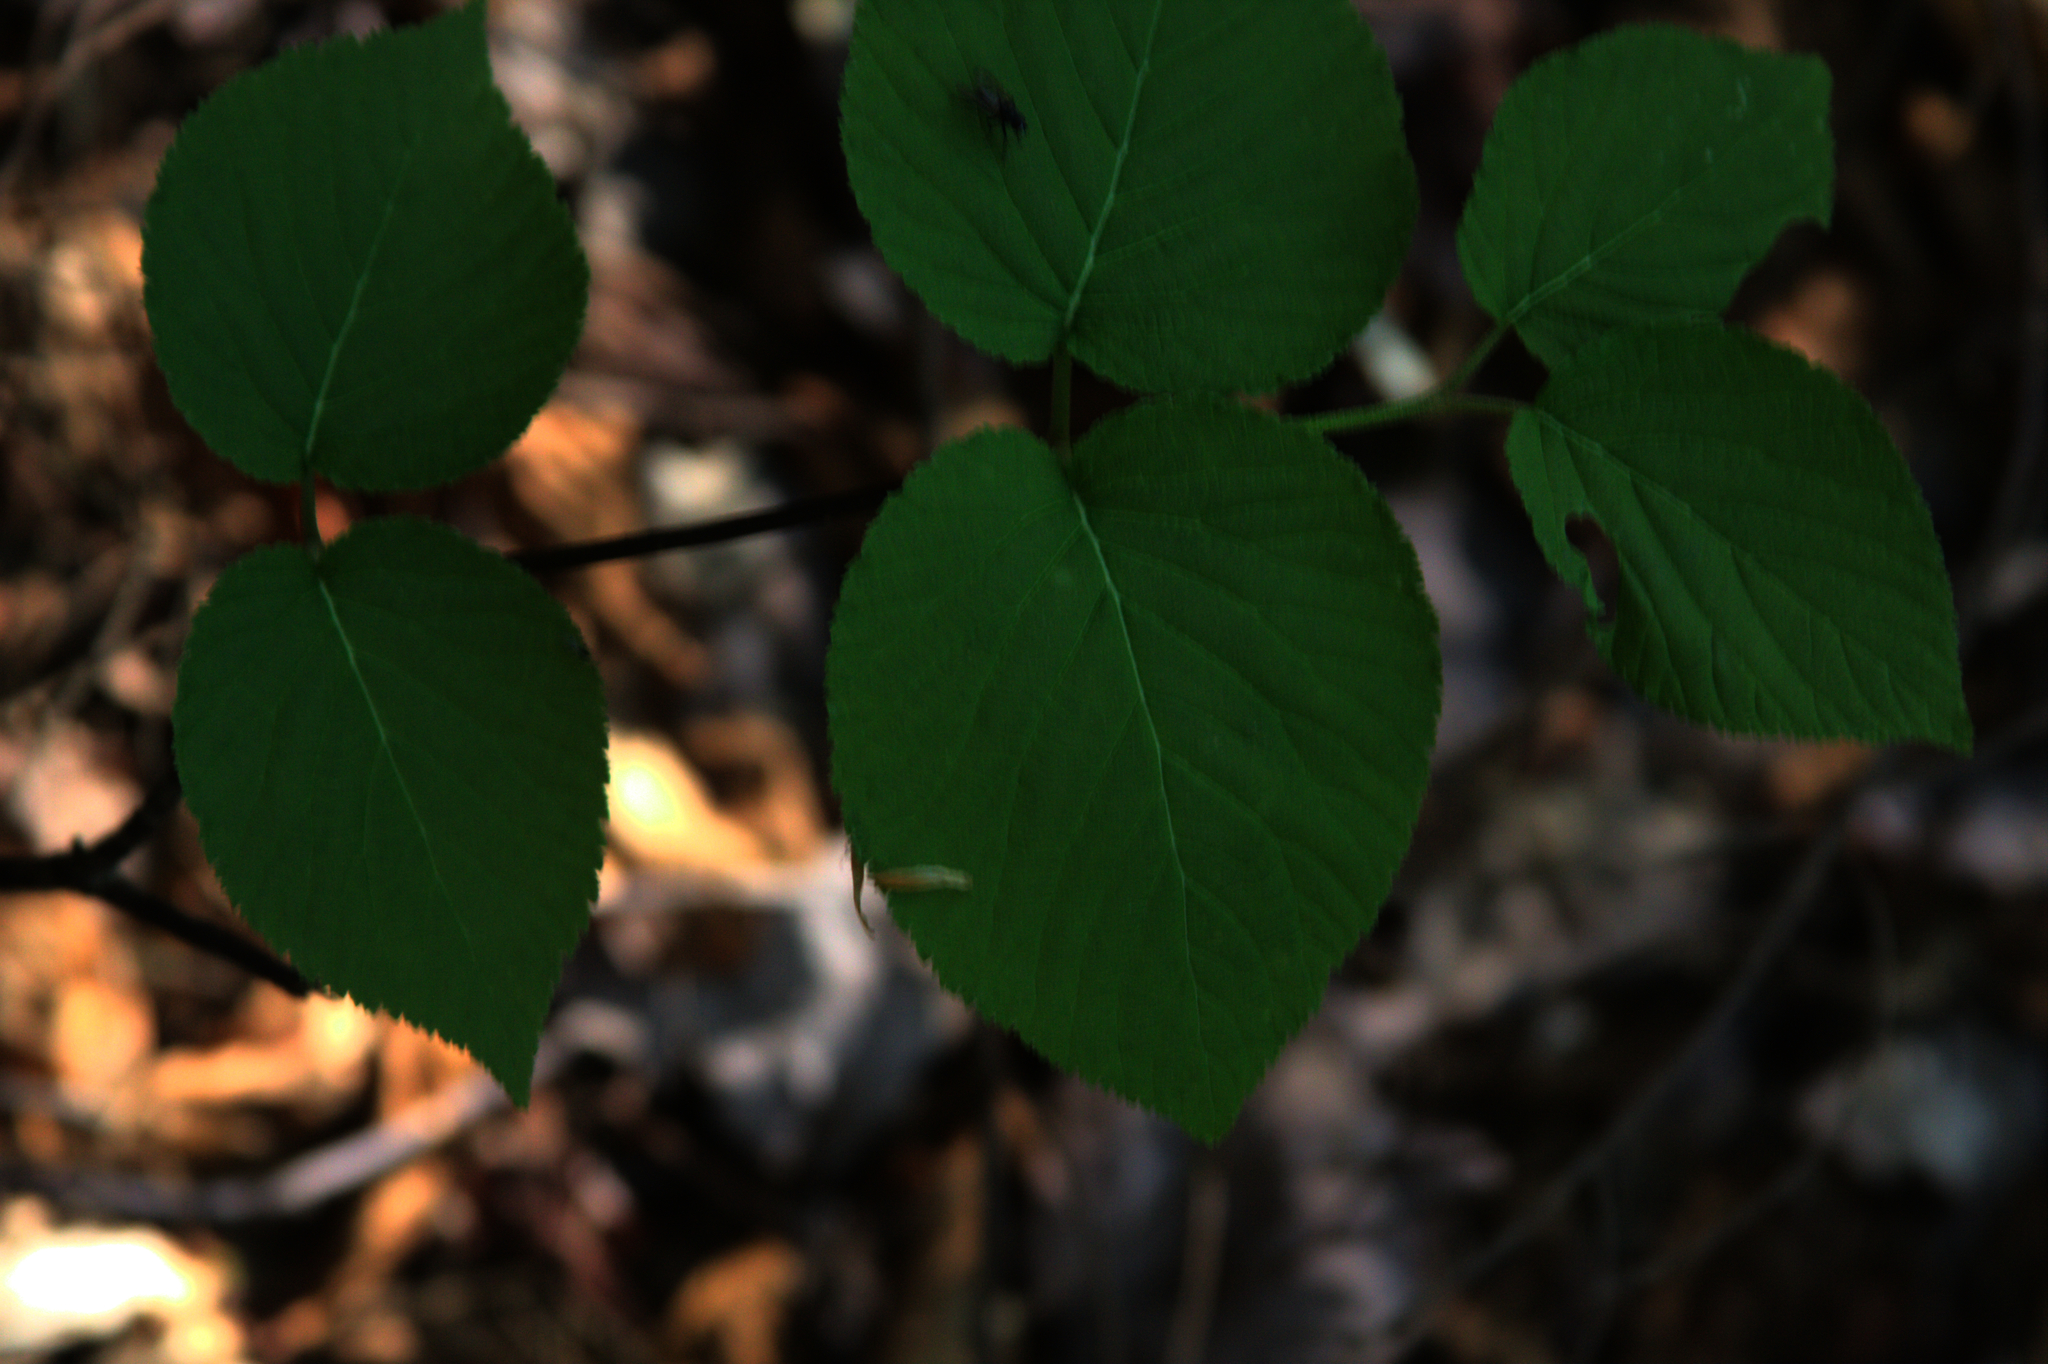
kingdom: Plantae
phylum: Tracheophyta
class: Magnoliopsida
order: Dipsacales
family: Viburnaceae
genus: Viburnum
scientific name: Viburnum lantanoides
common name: Hobblebush
